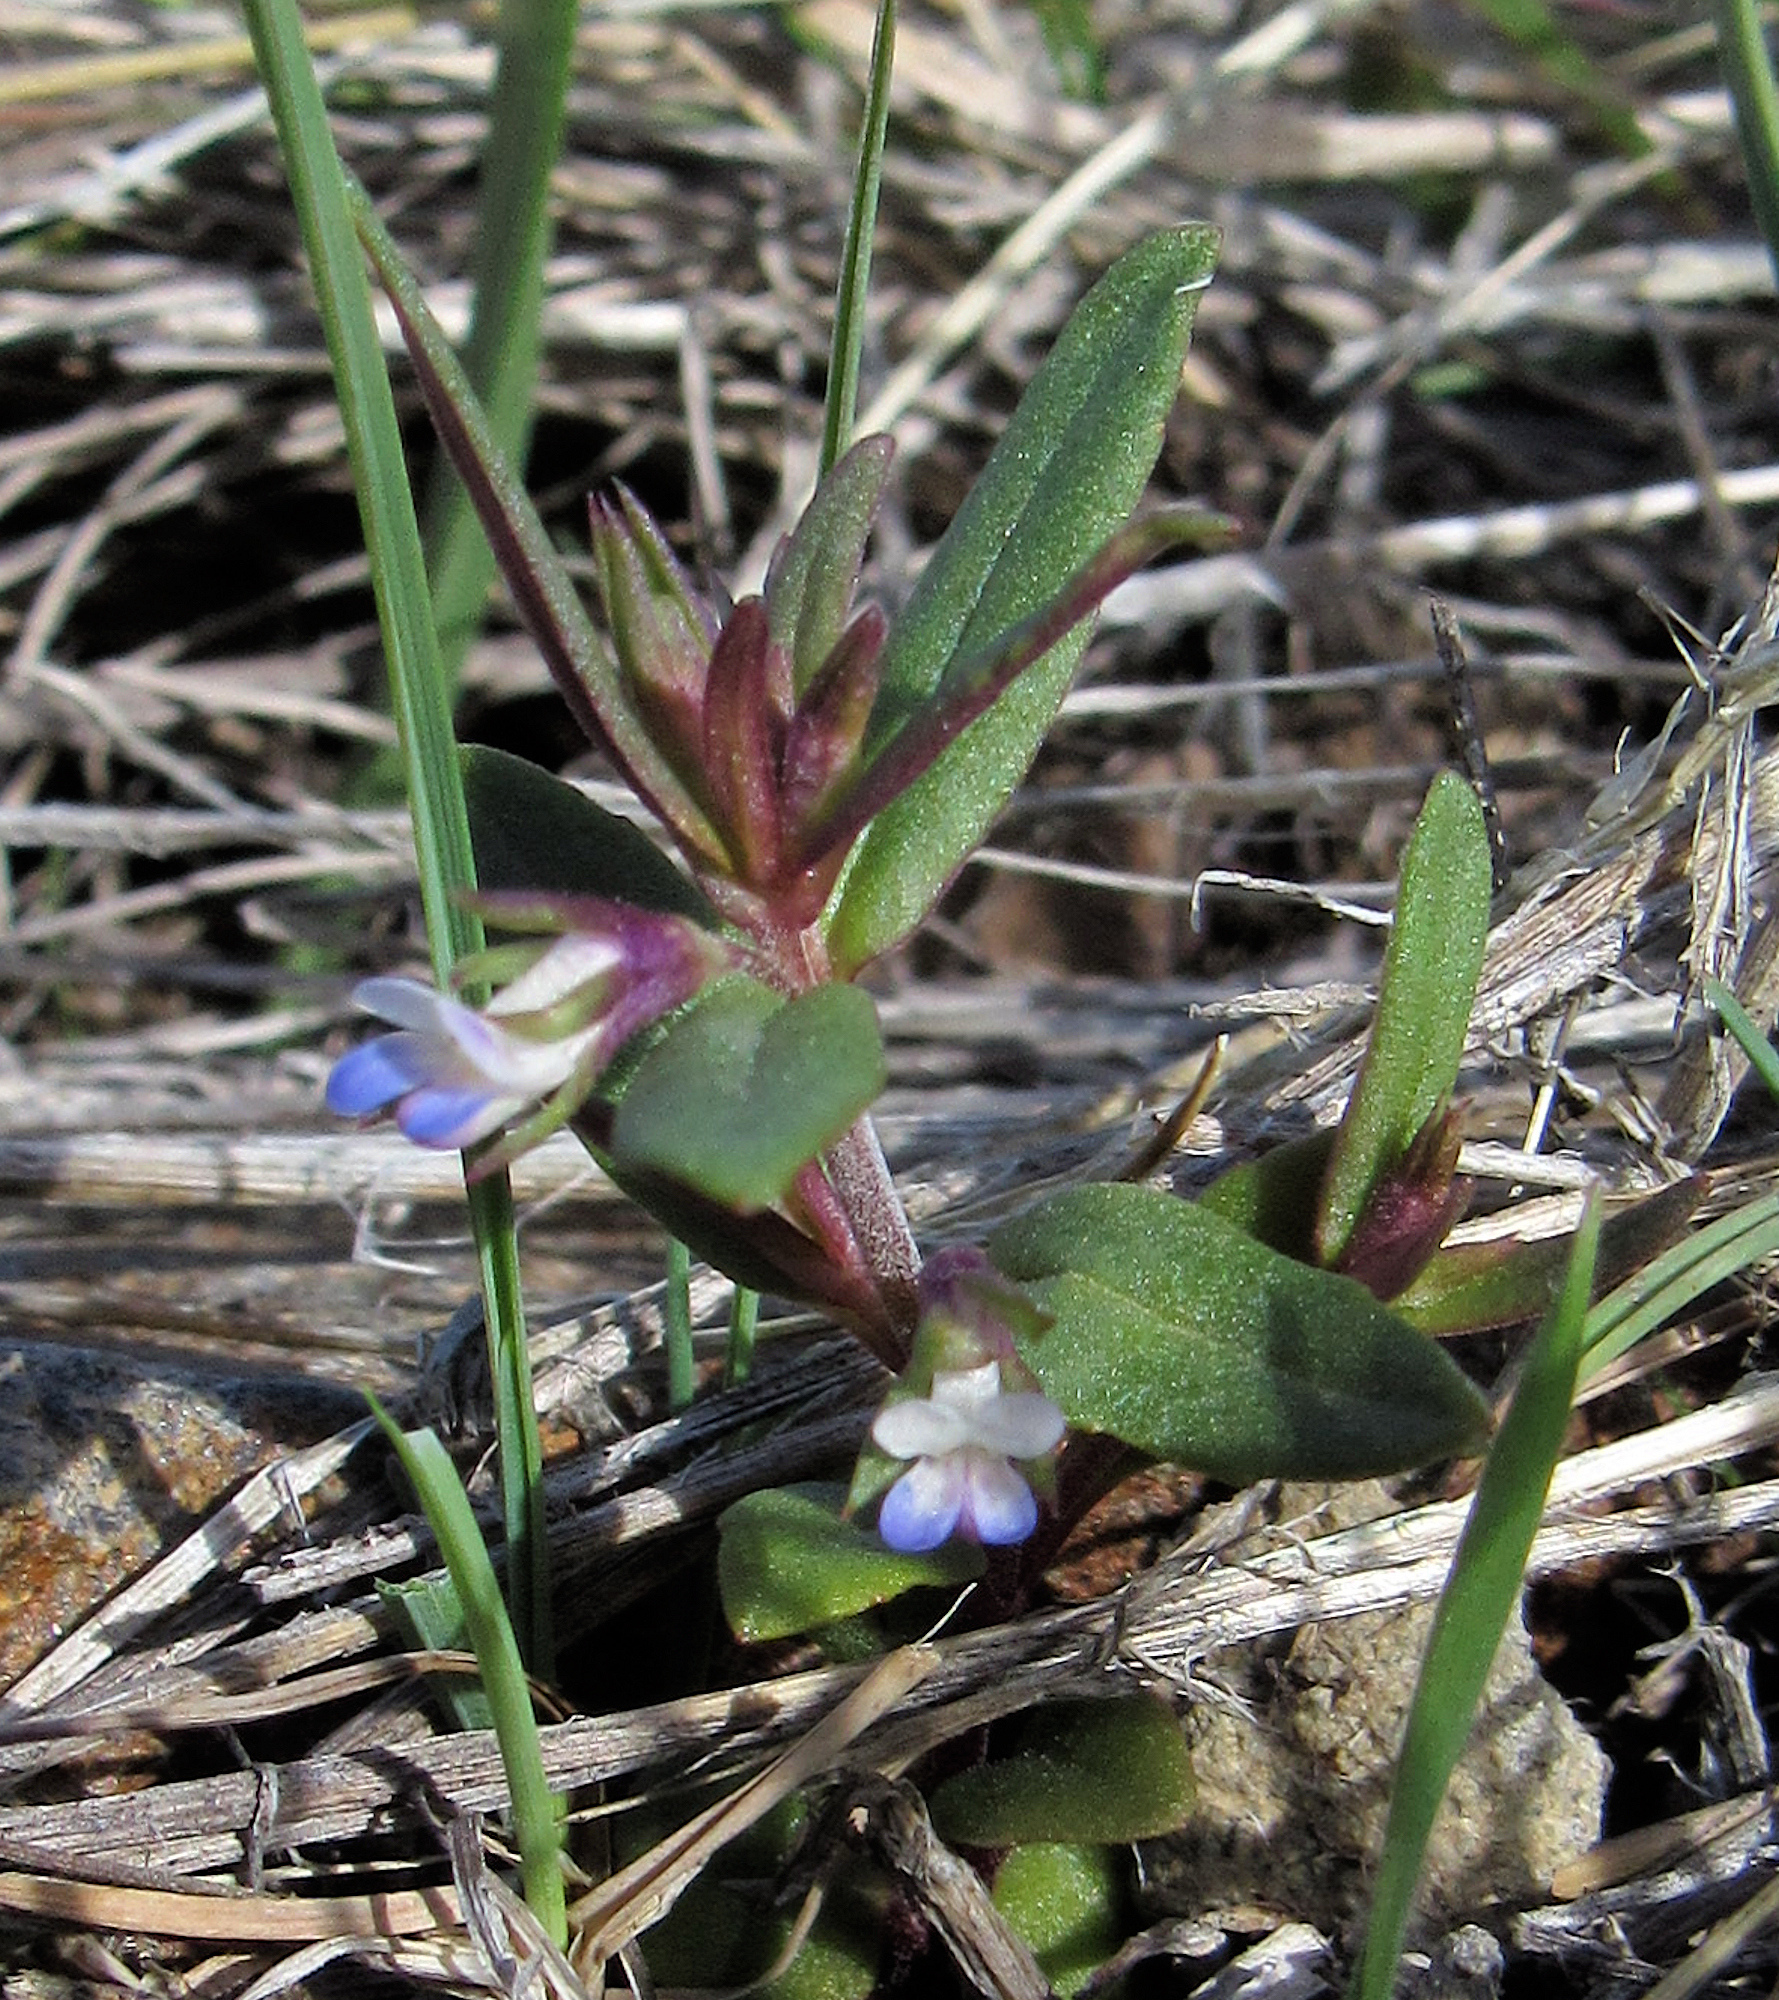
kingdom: Plantae
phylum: Tracheophyta
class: Magnoliopsida
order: Lamiales
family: Plantaginaceae
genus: Collinsia
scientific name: Collinsia parviflora
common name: Blue-lips
